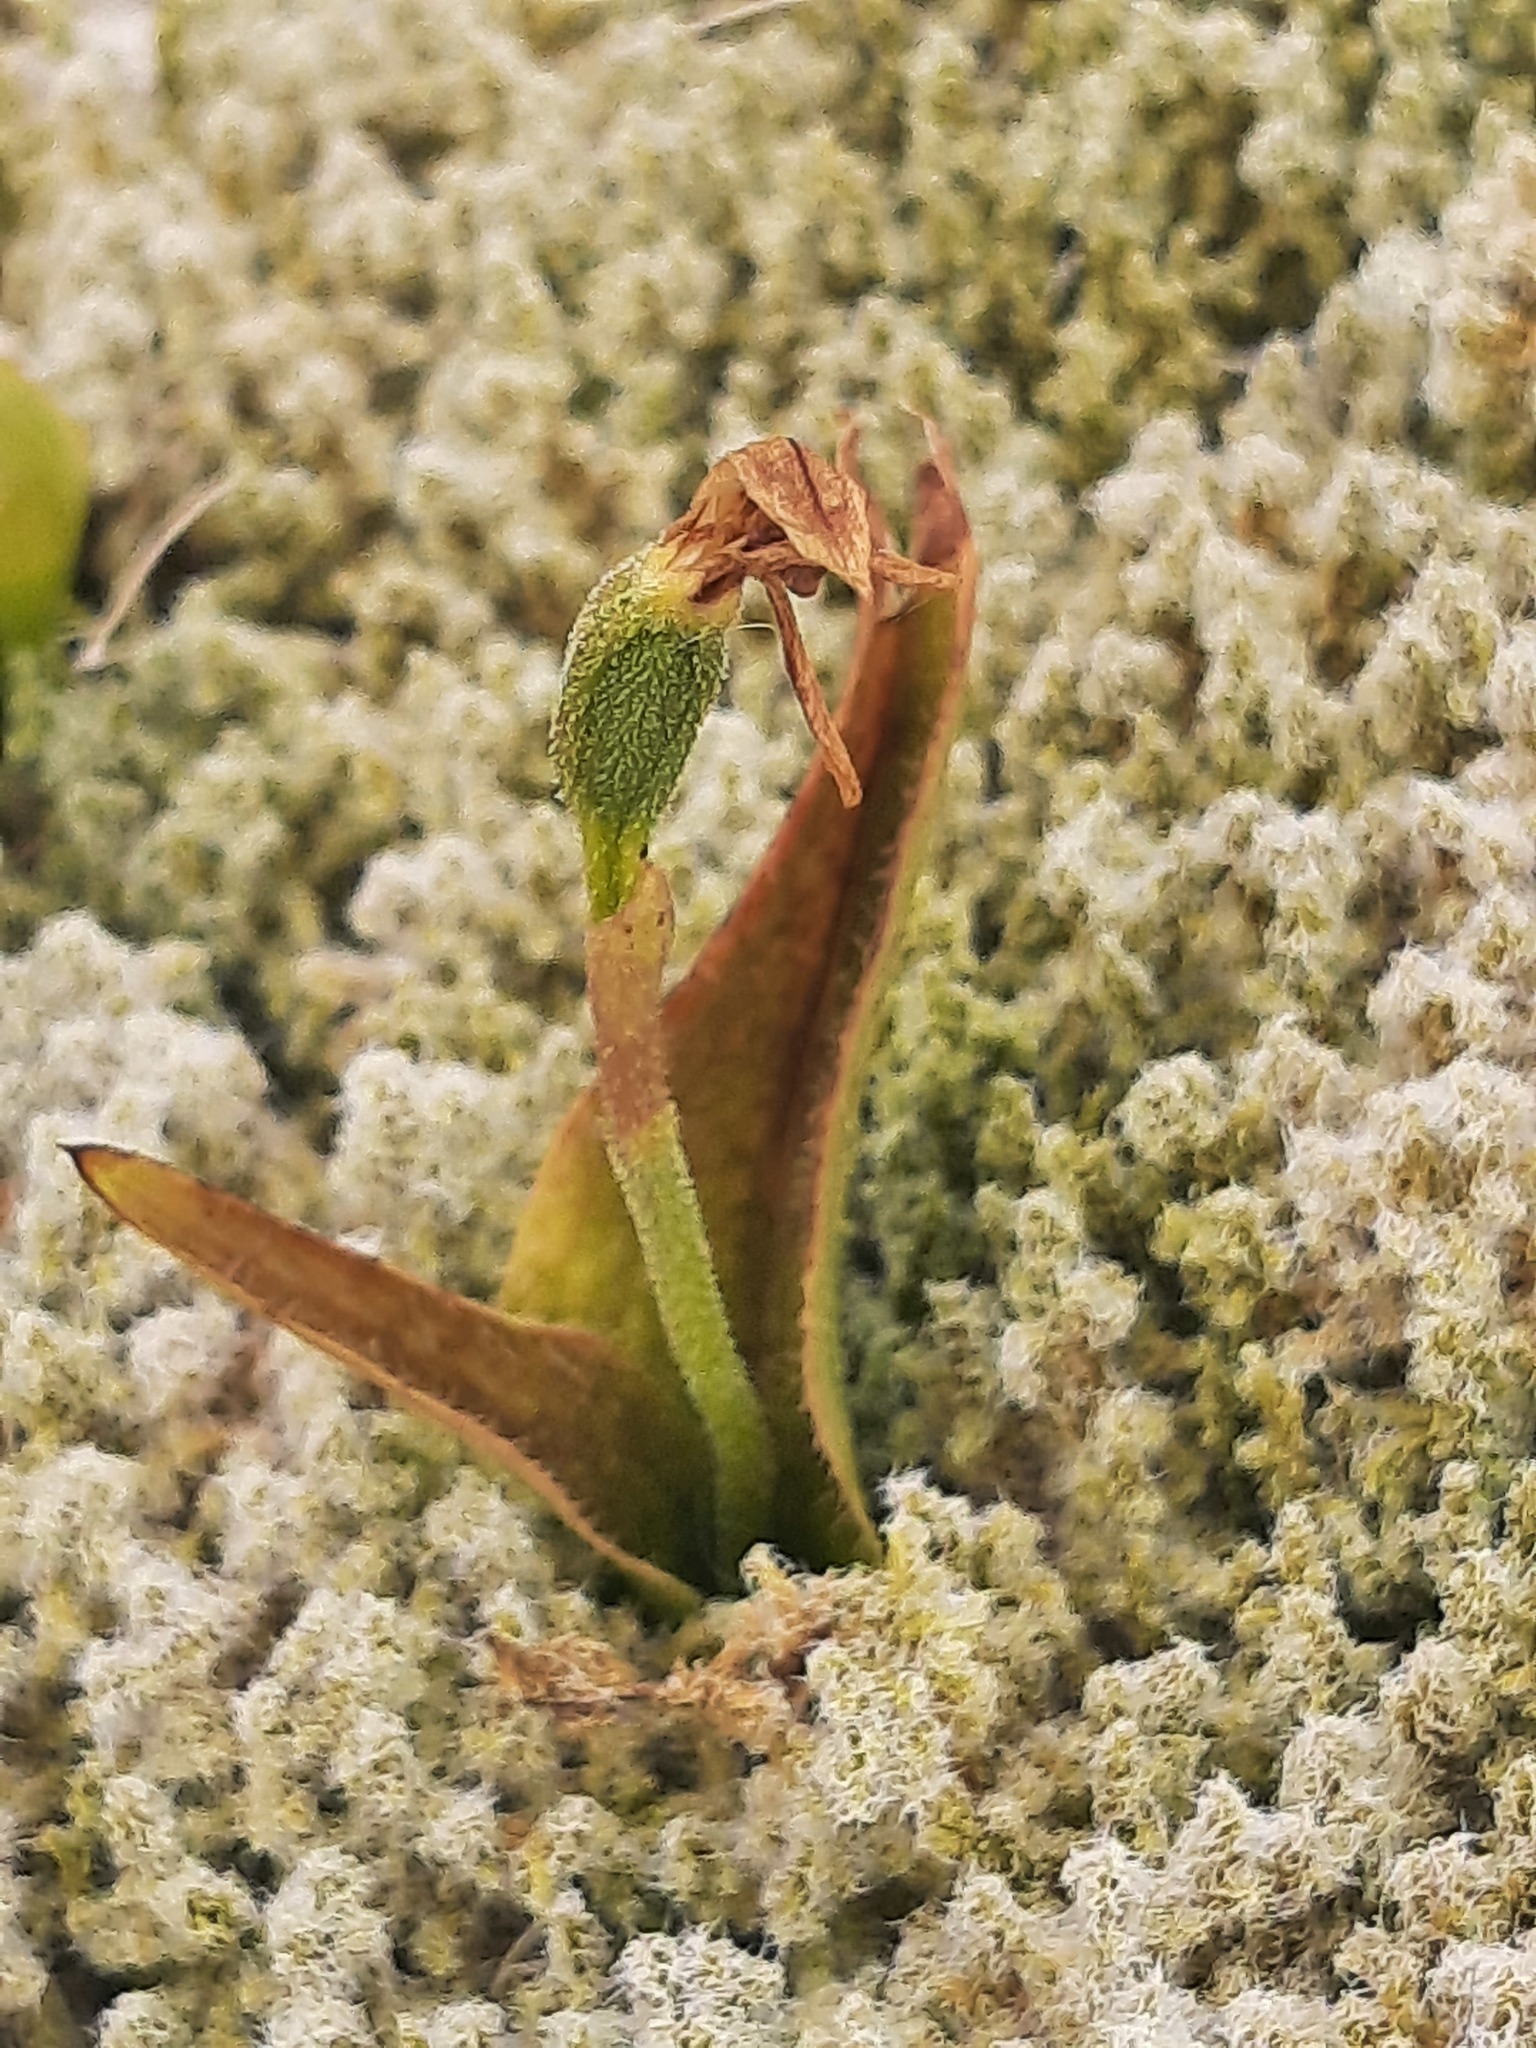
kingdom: Plantae
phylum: Tracheophyta
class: Liliopsida
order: Asparagales
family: Orchidaceae
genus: Aporostylis
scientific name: Aporostylis bifolia
